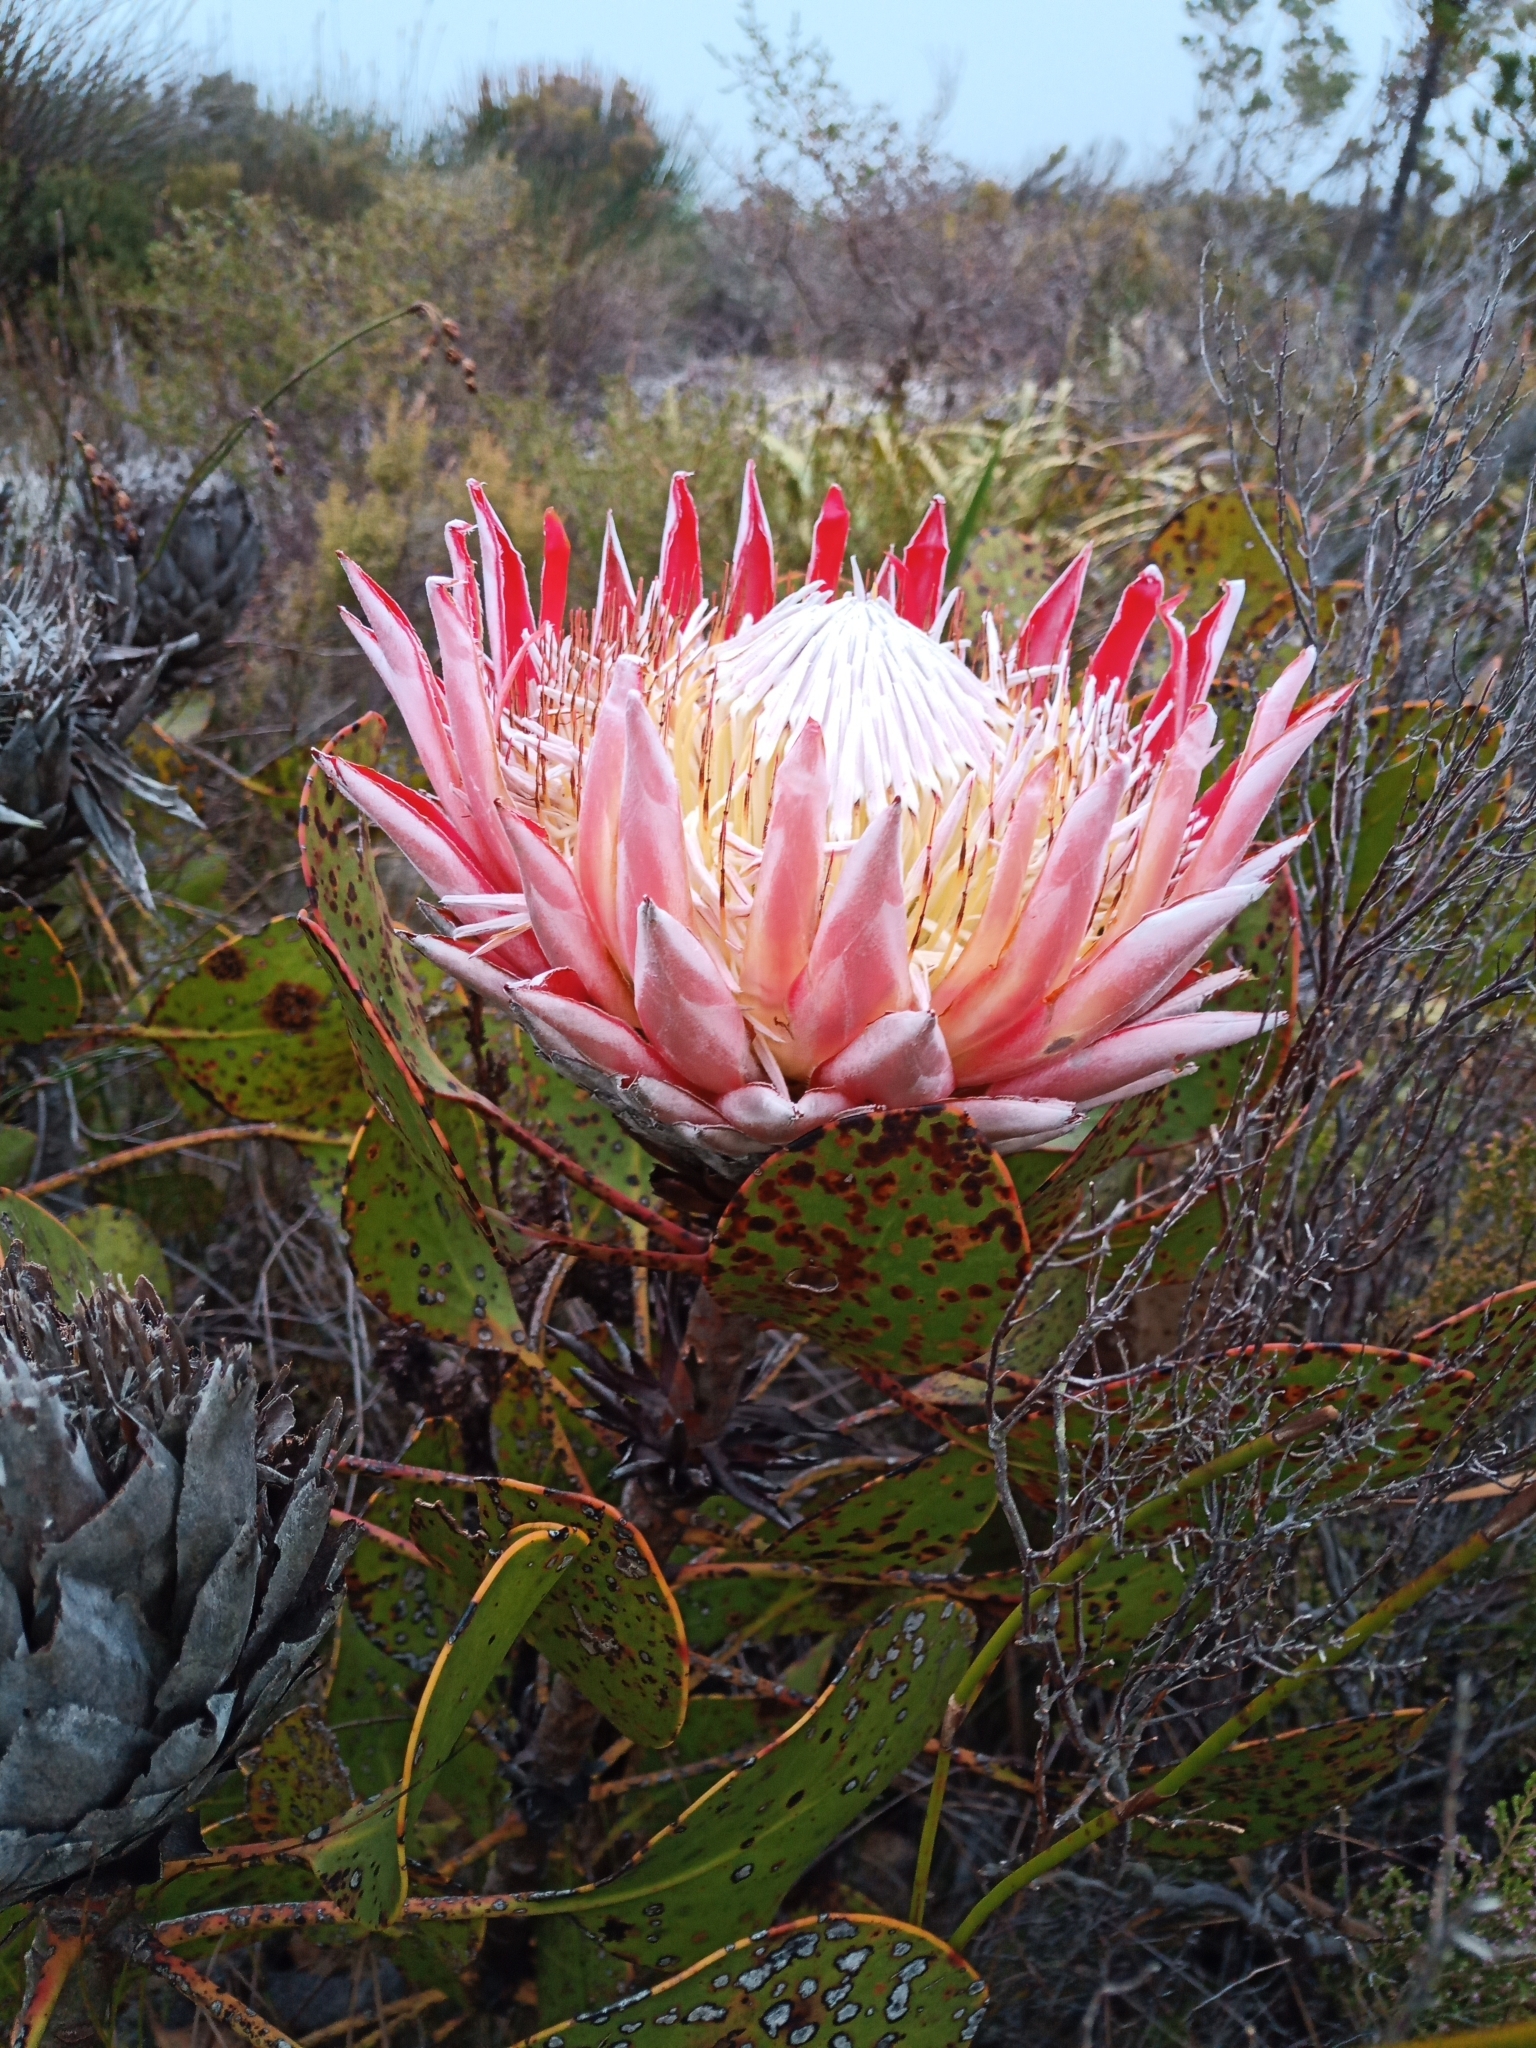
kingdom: Plantae
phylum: Tracheophyta
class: Magnoliopsida
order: Proteales
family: Proteaceae
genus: Protea
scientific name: Protea cynaroides
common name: King protea
